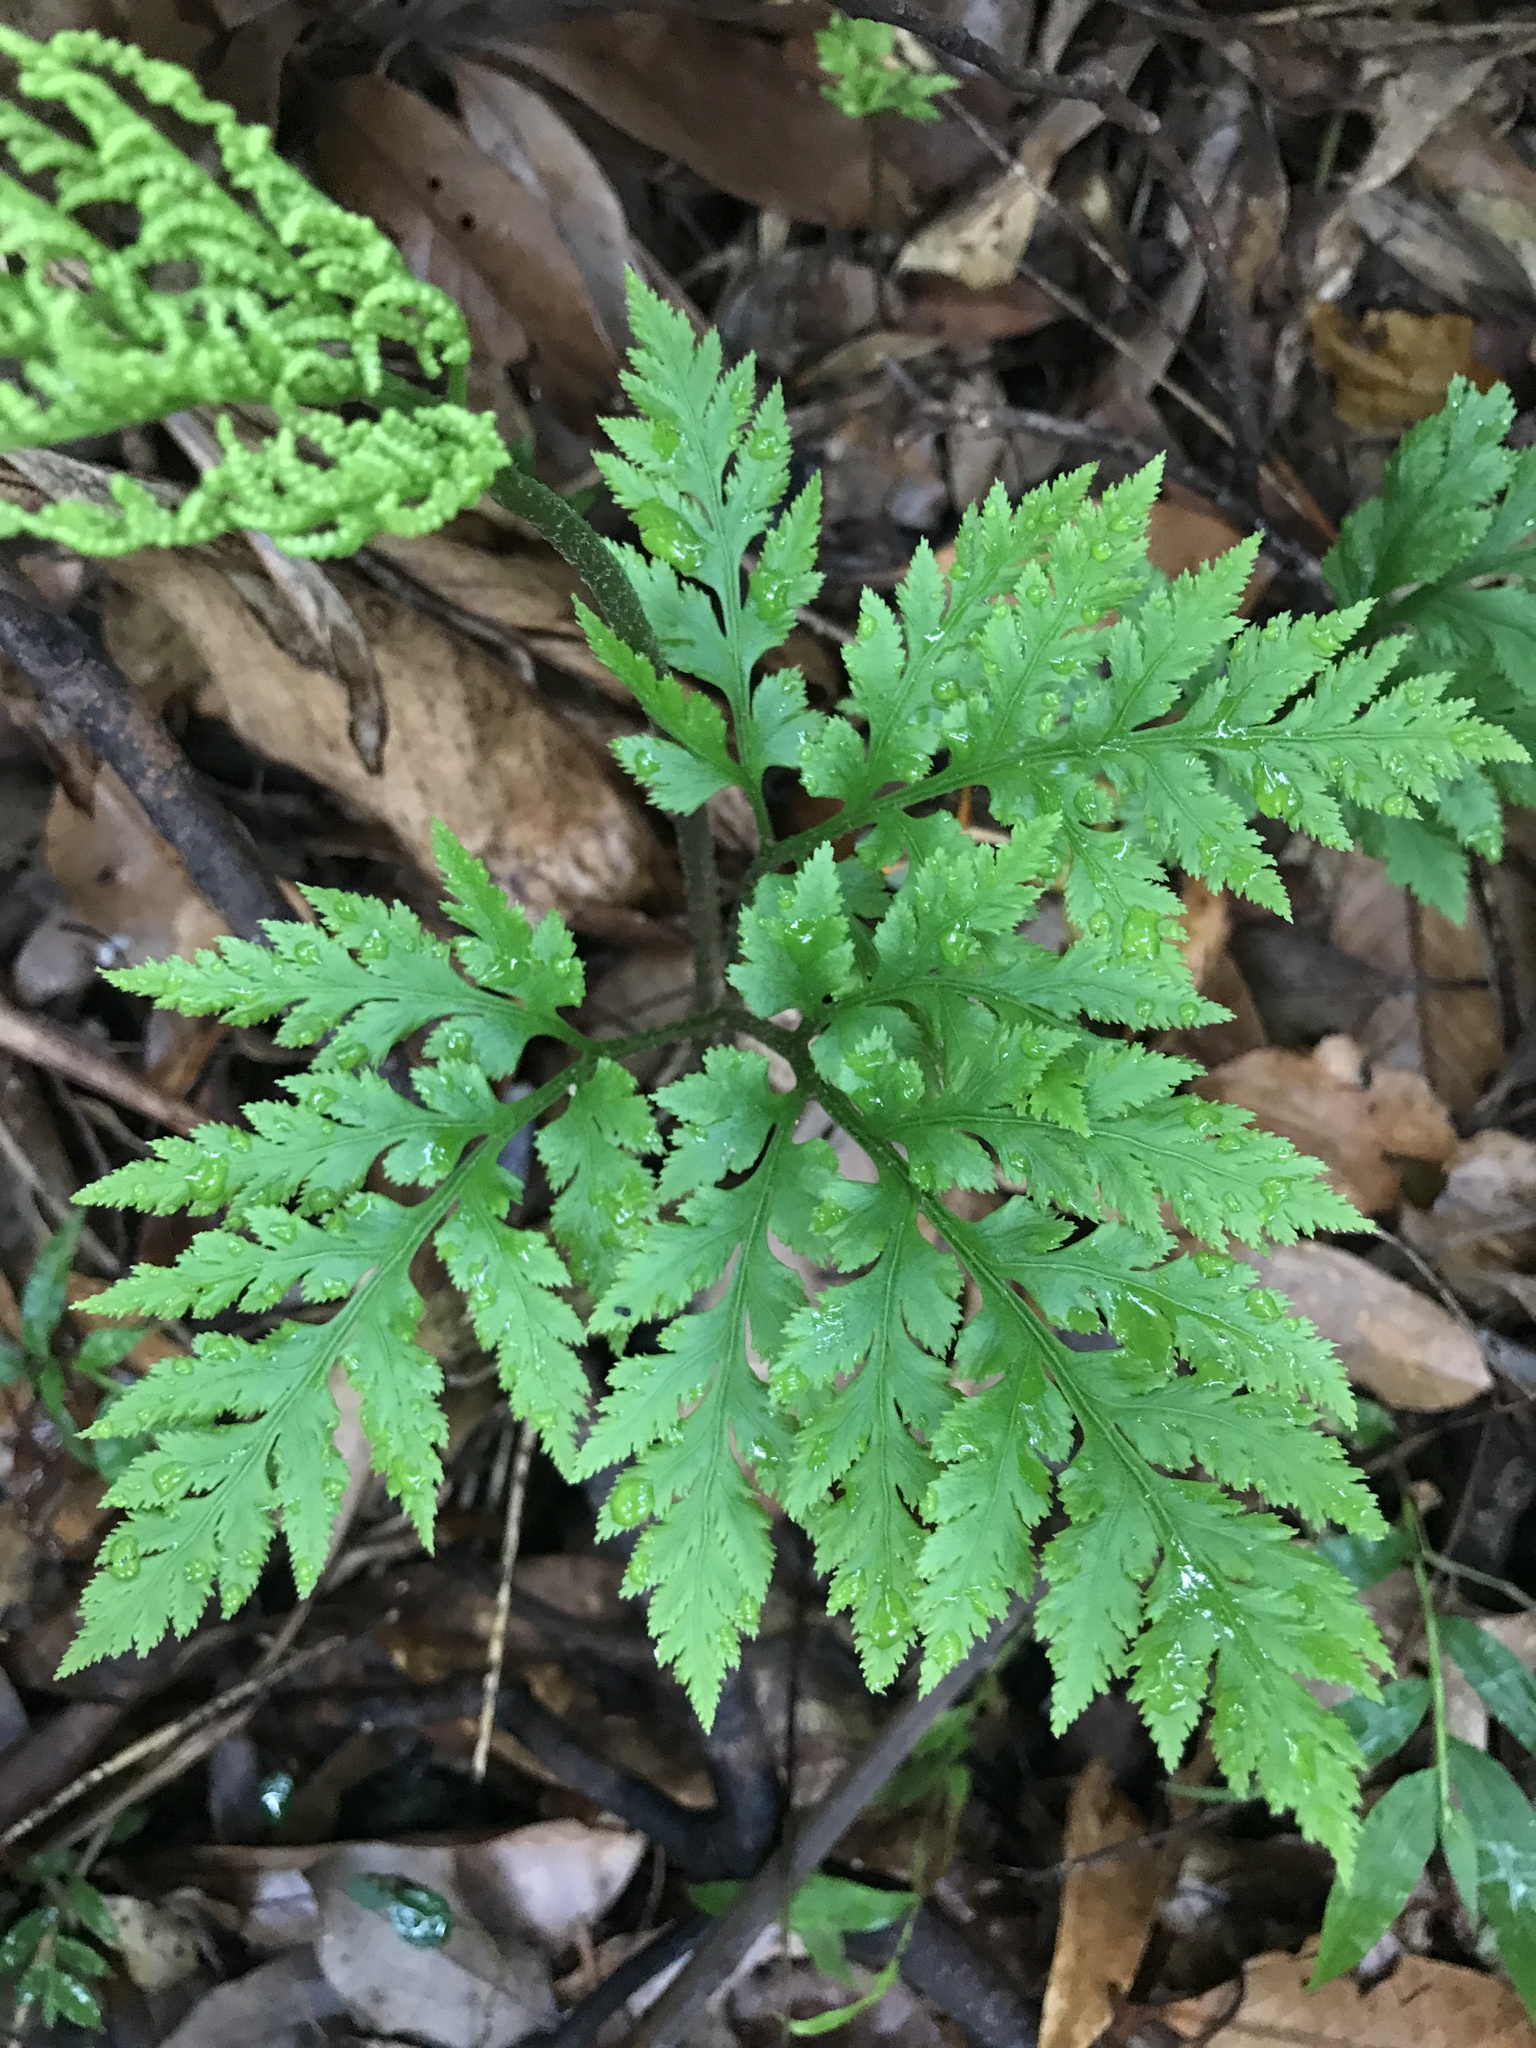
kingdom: Plantae
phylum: Tracheophyta
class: Polypodiopsida
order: Ophioglossales
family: Ophioglossaceae
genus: Sceptridium
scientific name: Sceptridium atrovirens
